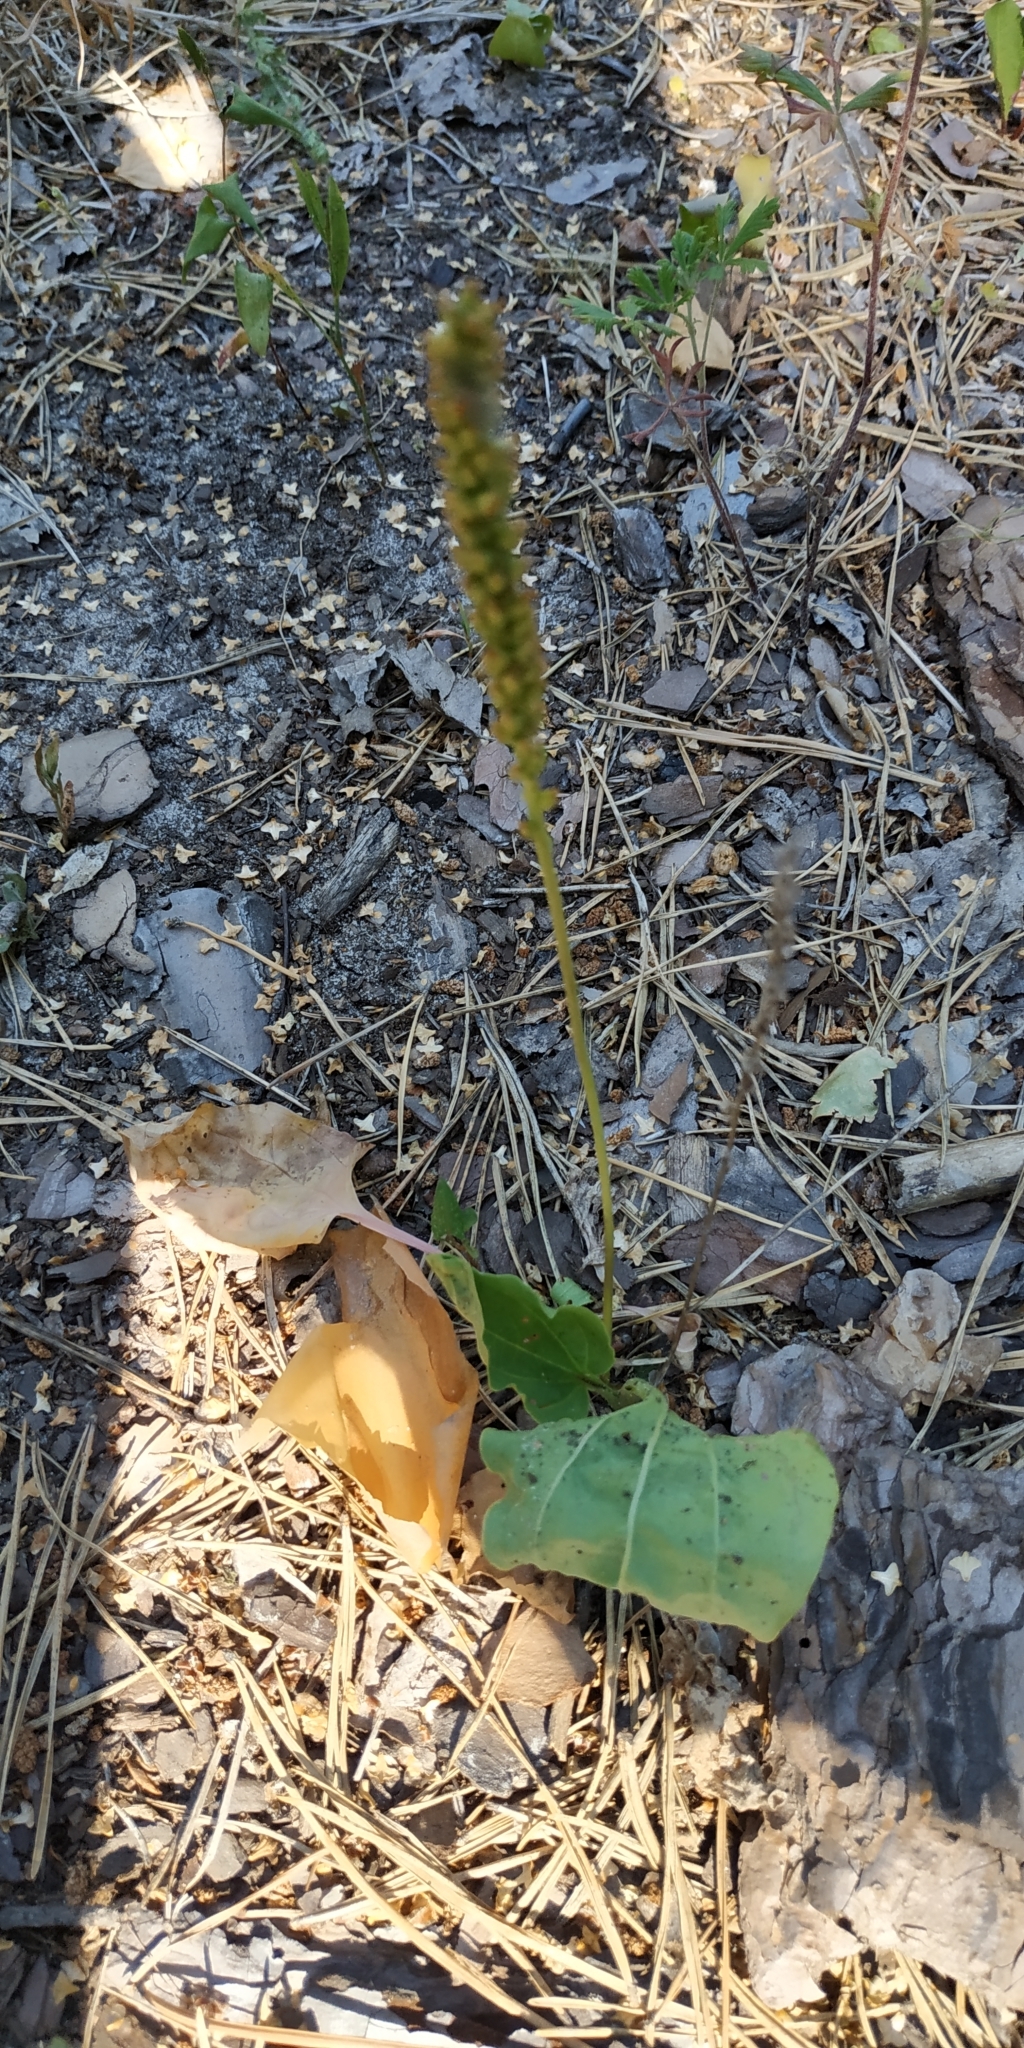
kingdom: Plantae
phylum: Tracheophyta
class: Magnoliopsida
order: Lamiales
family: Plantaginaceae
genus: Plantago
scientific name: Plantago major
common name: Common plantain
